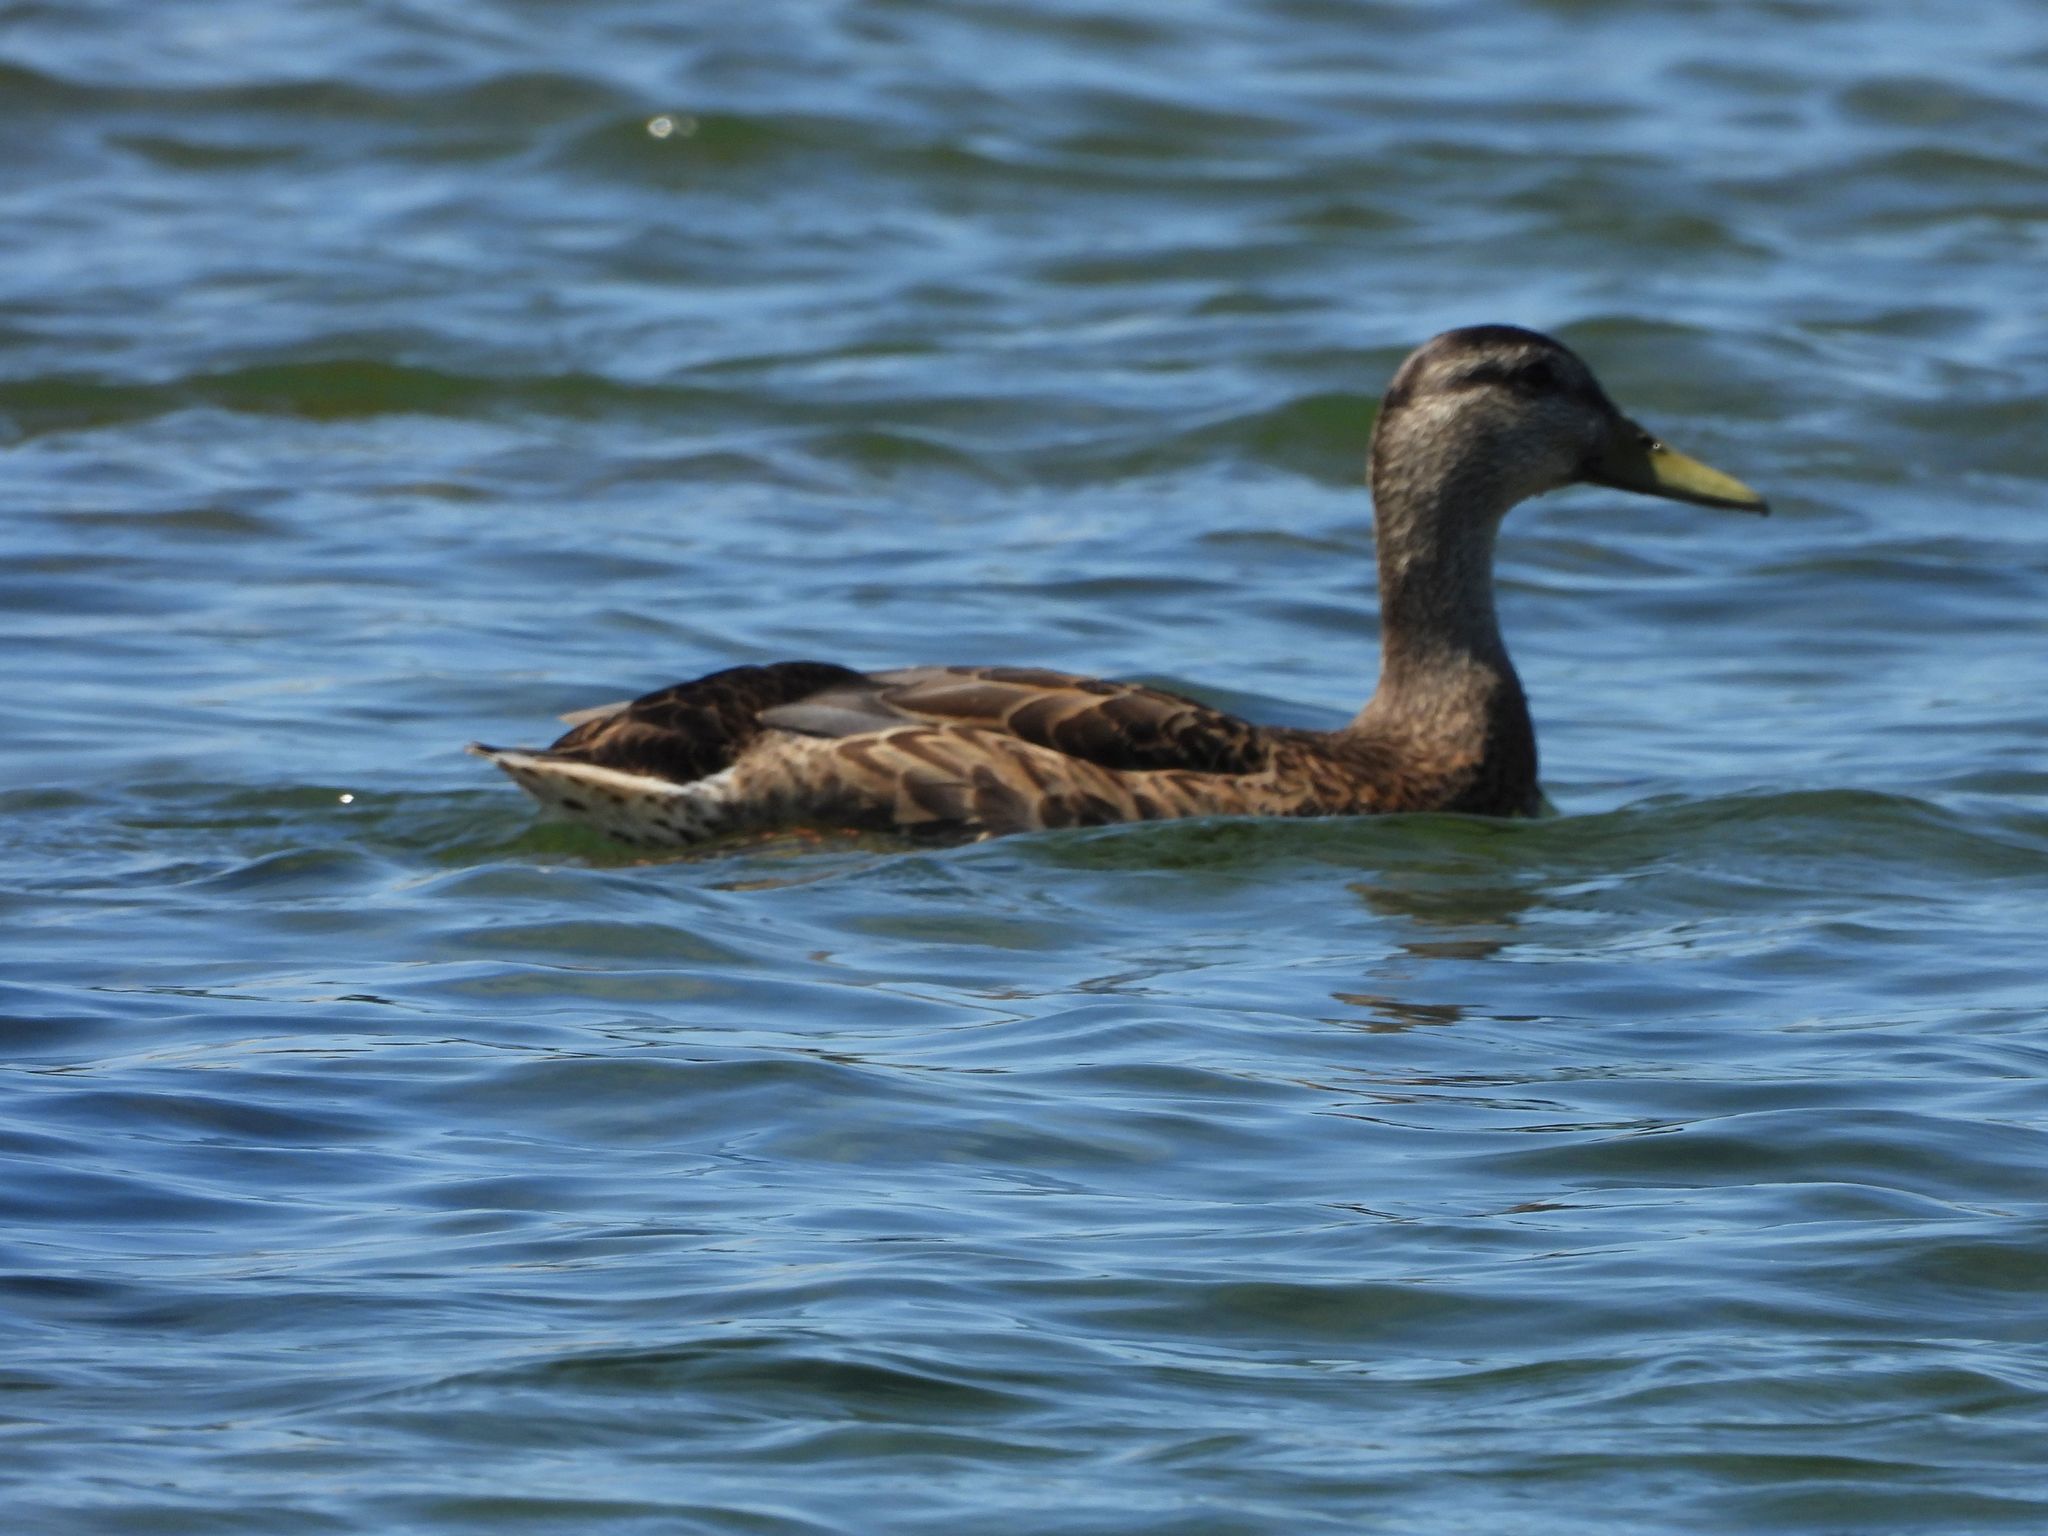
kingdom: Animalia
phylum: Chordata
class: Aves
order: Anseriformes
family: Anatidae
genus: Anas
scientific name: Anas platyrhynchos
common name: Mallard
